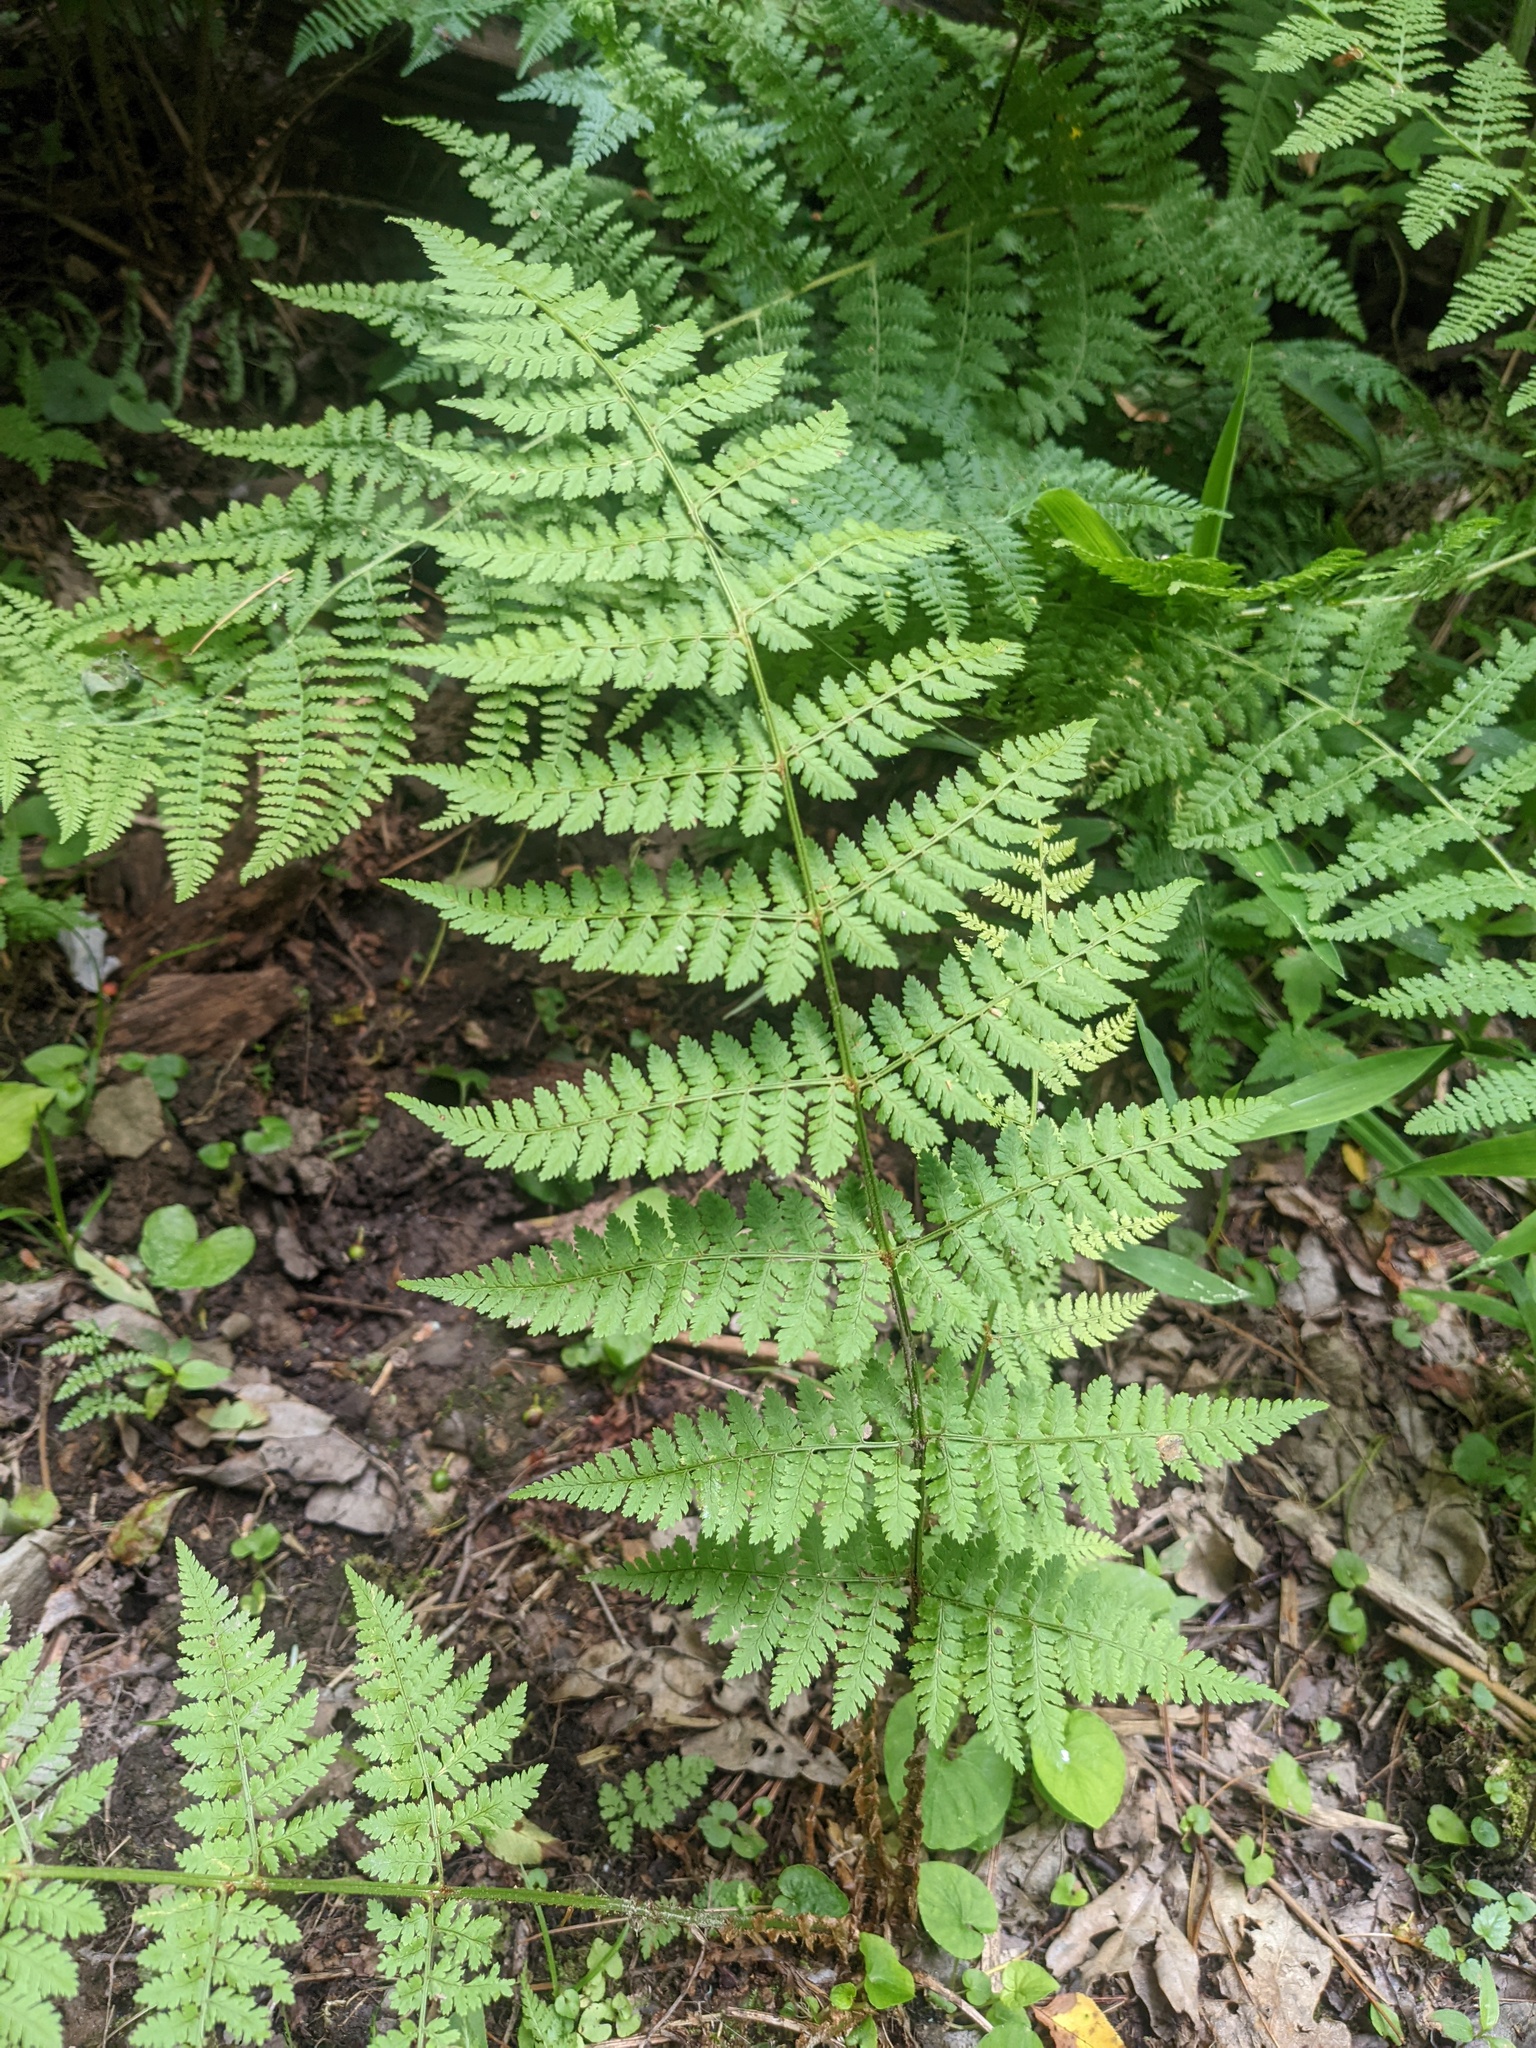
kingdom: Plantae
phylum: Tracheophyta
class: Polypodiopsida
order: Polypodiales
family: Dryopteridaceae
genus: Dryopteris
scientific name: Dryopteris intermedia
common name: Evergreen wood fern
